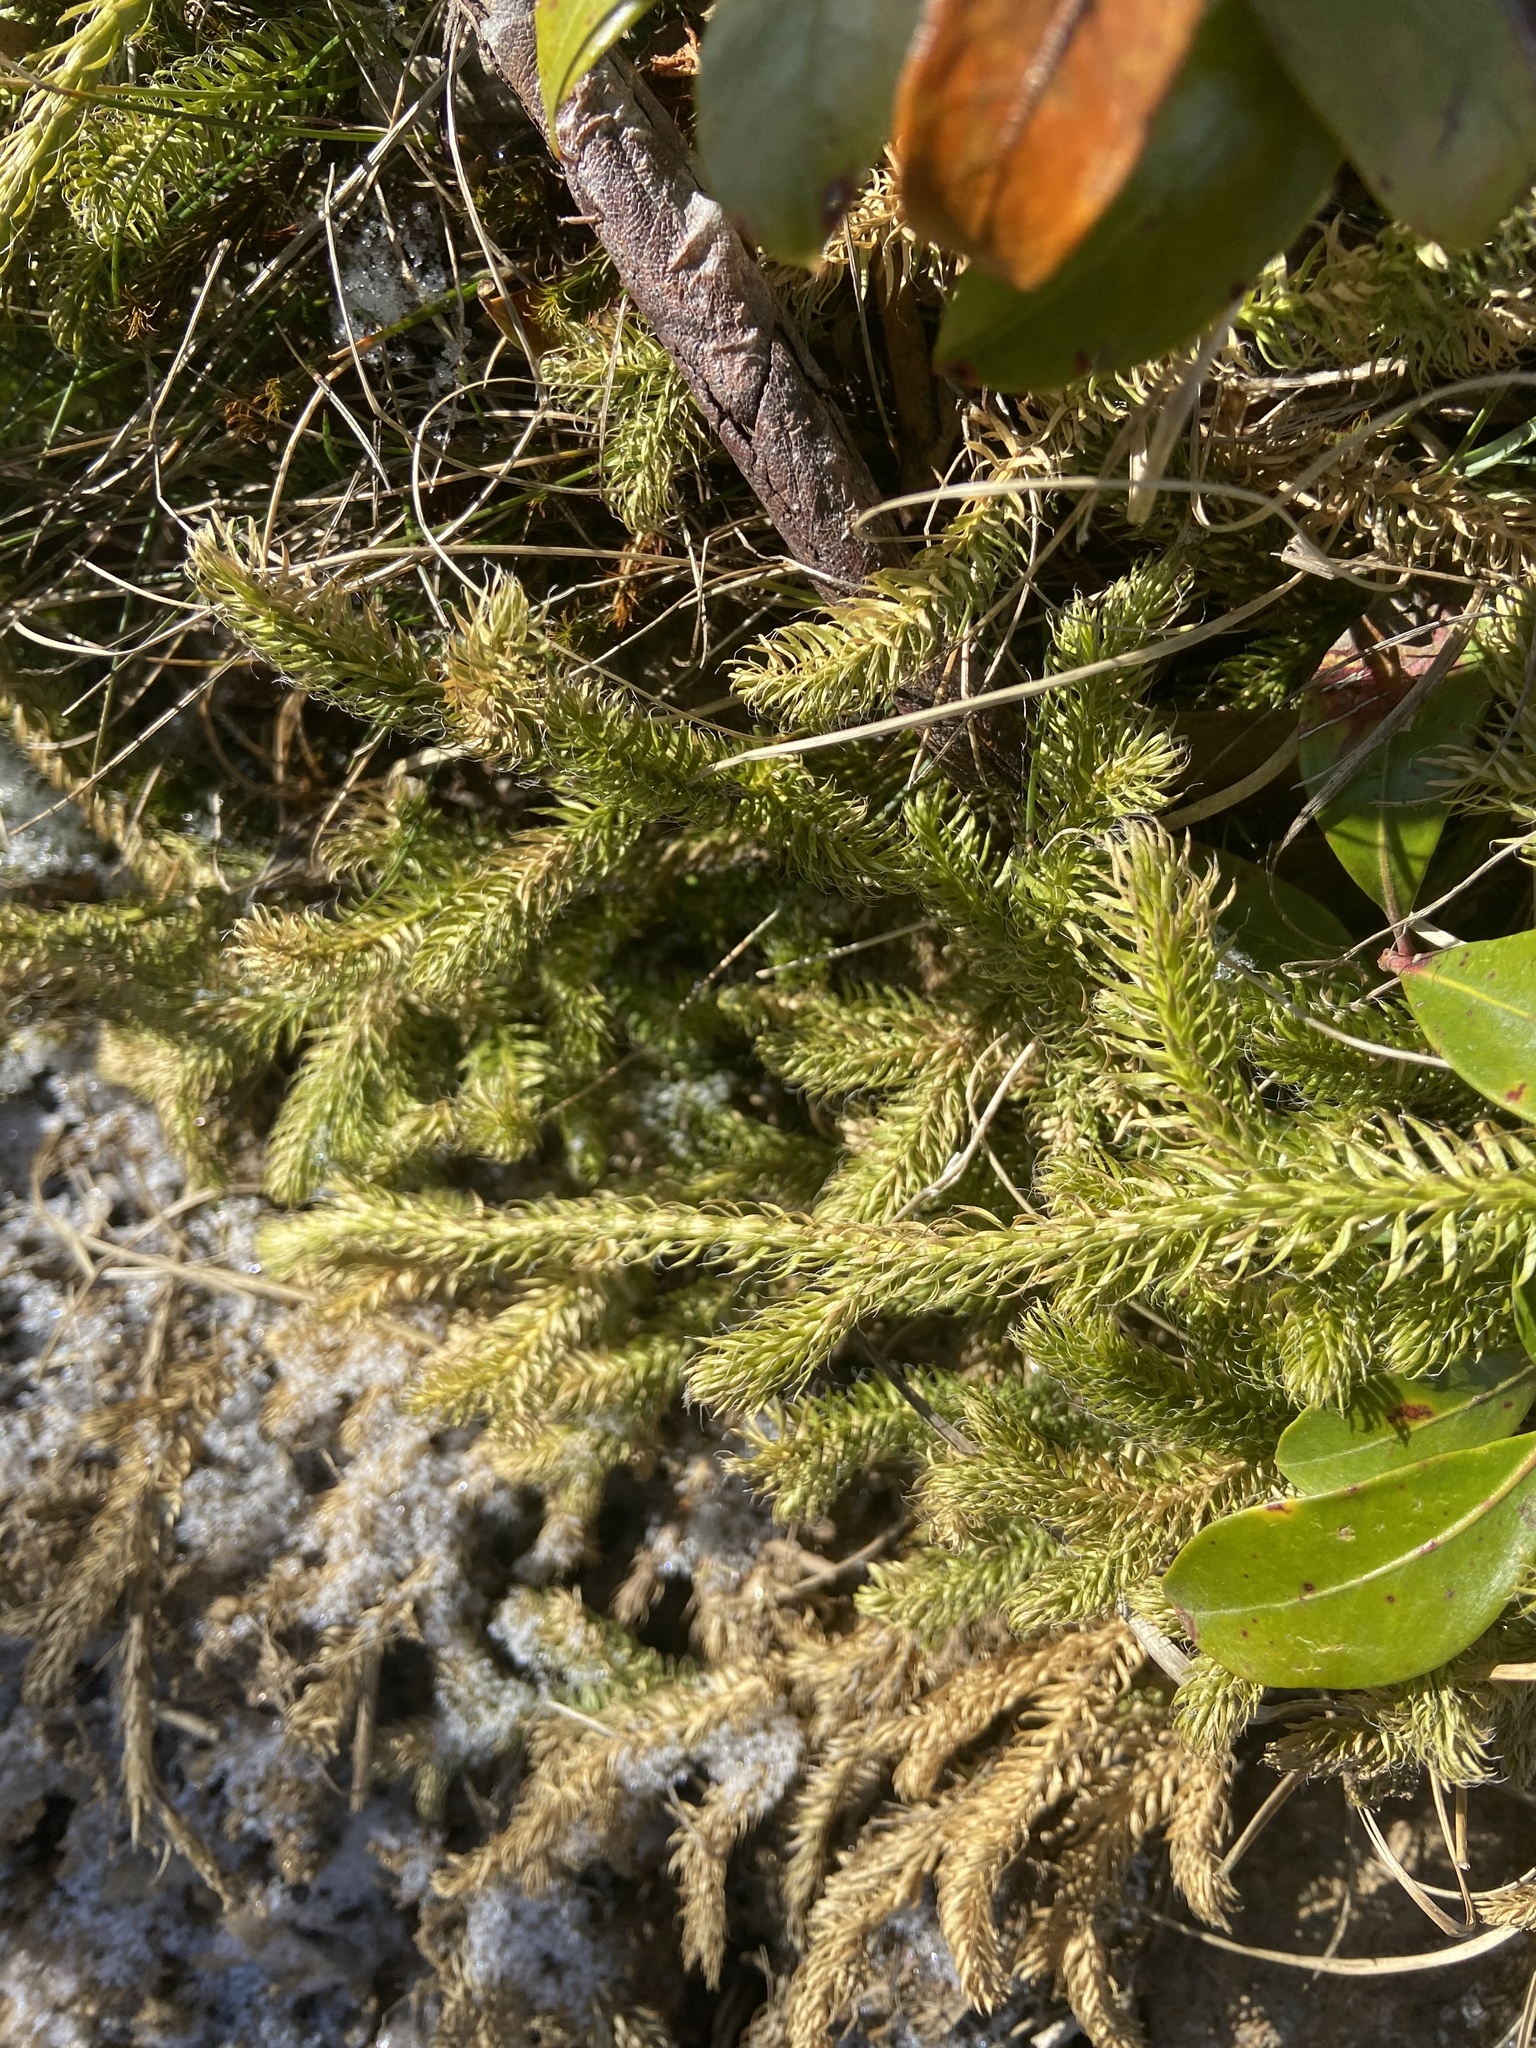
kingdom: Plantae
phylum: Tracheophyta
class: Lycopodiopsida
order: Lycopodiales
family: Lycopodiaceae
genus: Lycopodium
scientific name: Lycopodium clavatum
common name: Stag's-horn clubmoss
